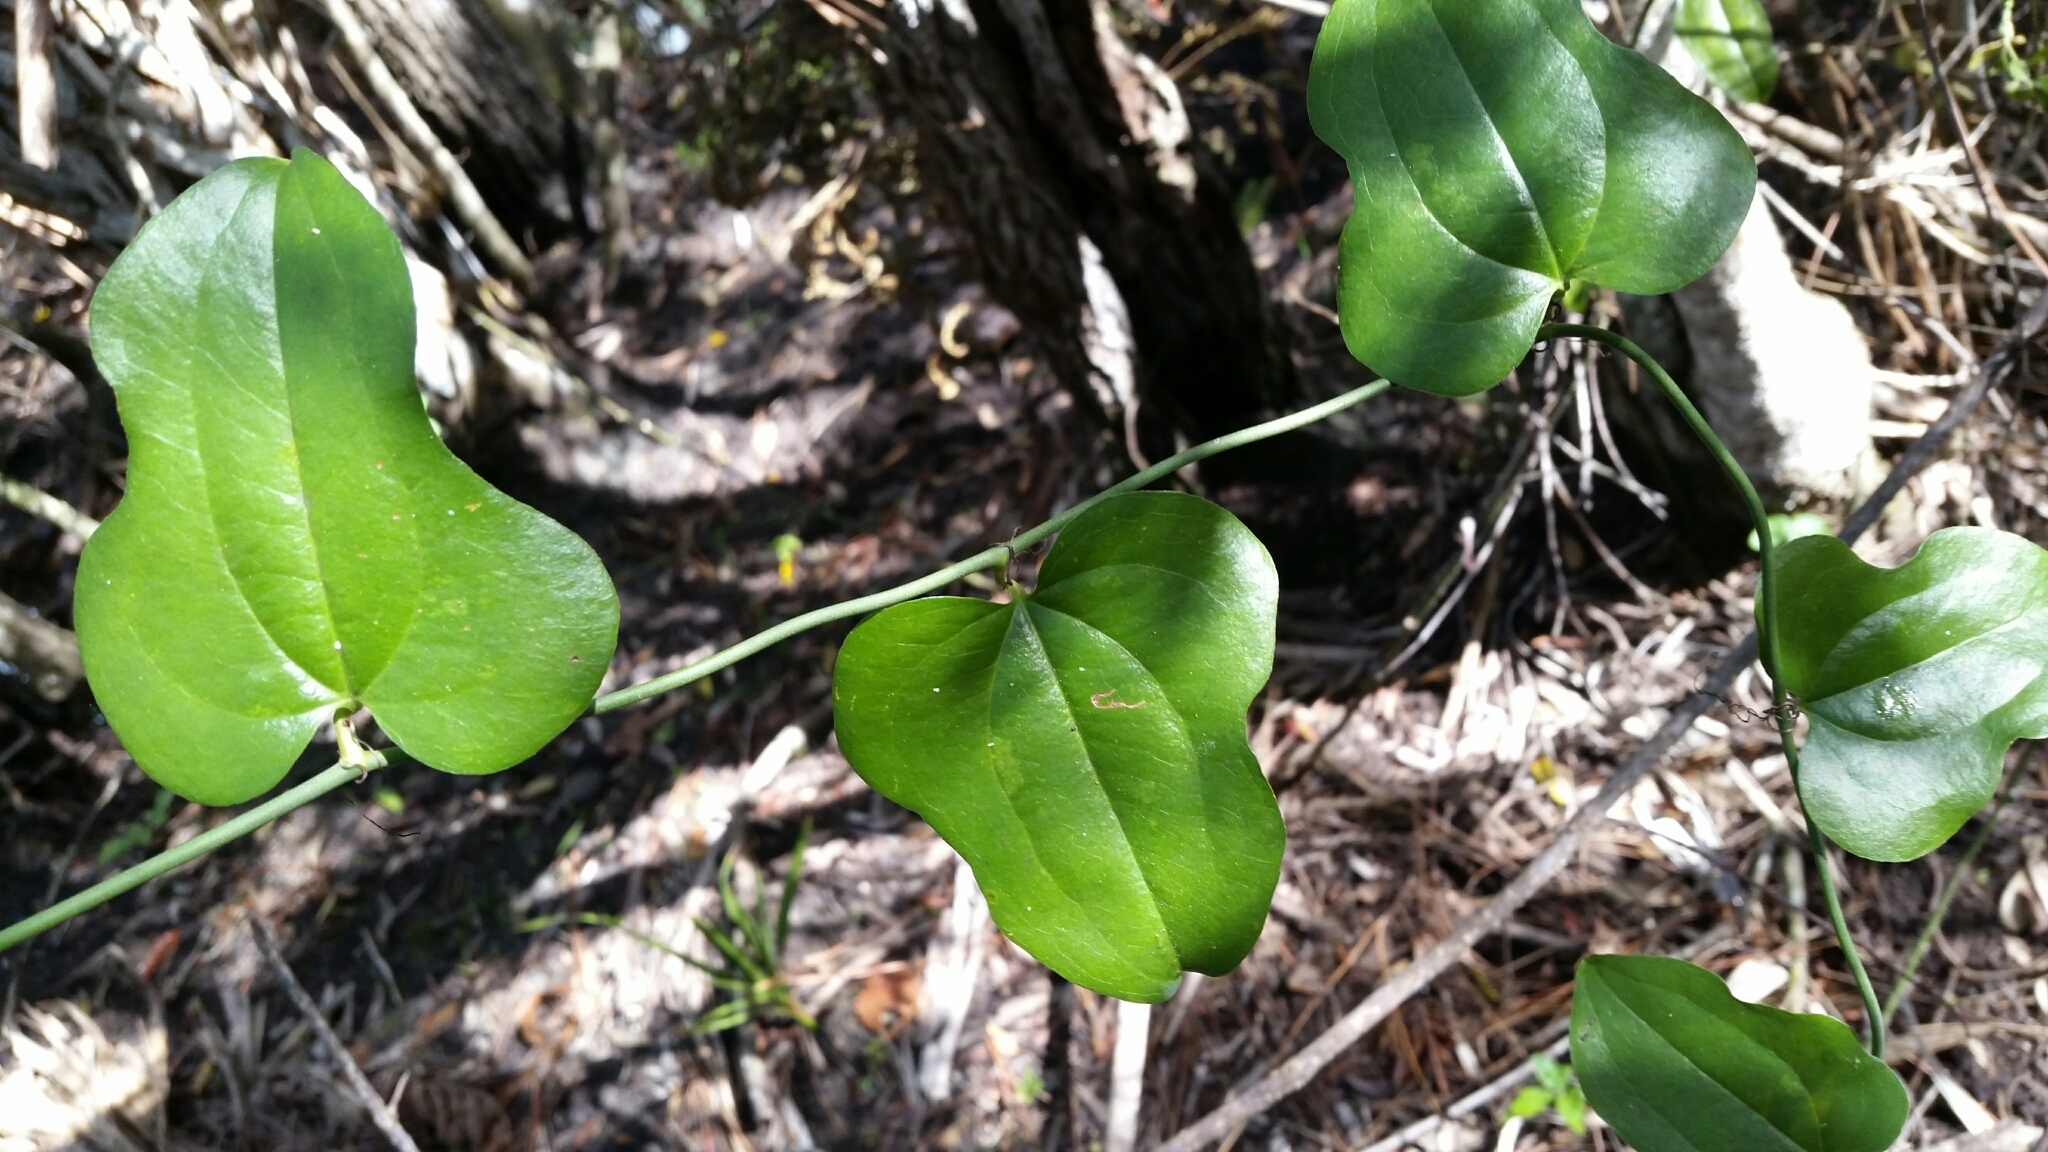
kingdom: Plantae
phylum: Tracheophyta
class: Liliopsida
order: Liliales
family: Smilacaceae
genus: Smilax
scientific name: Smilax tamnoides
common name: Hellfetter
